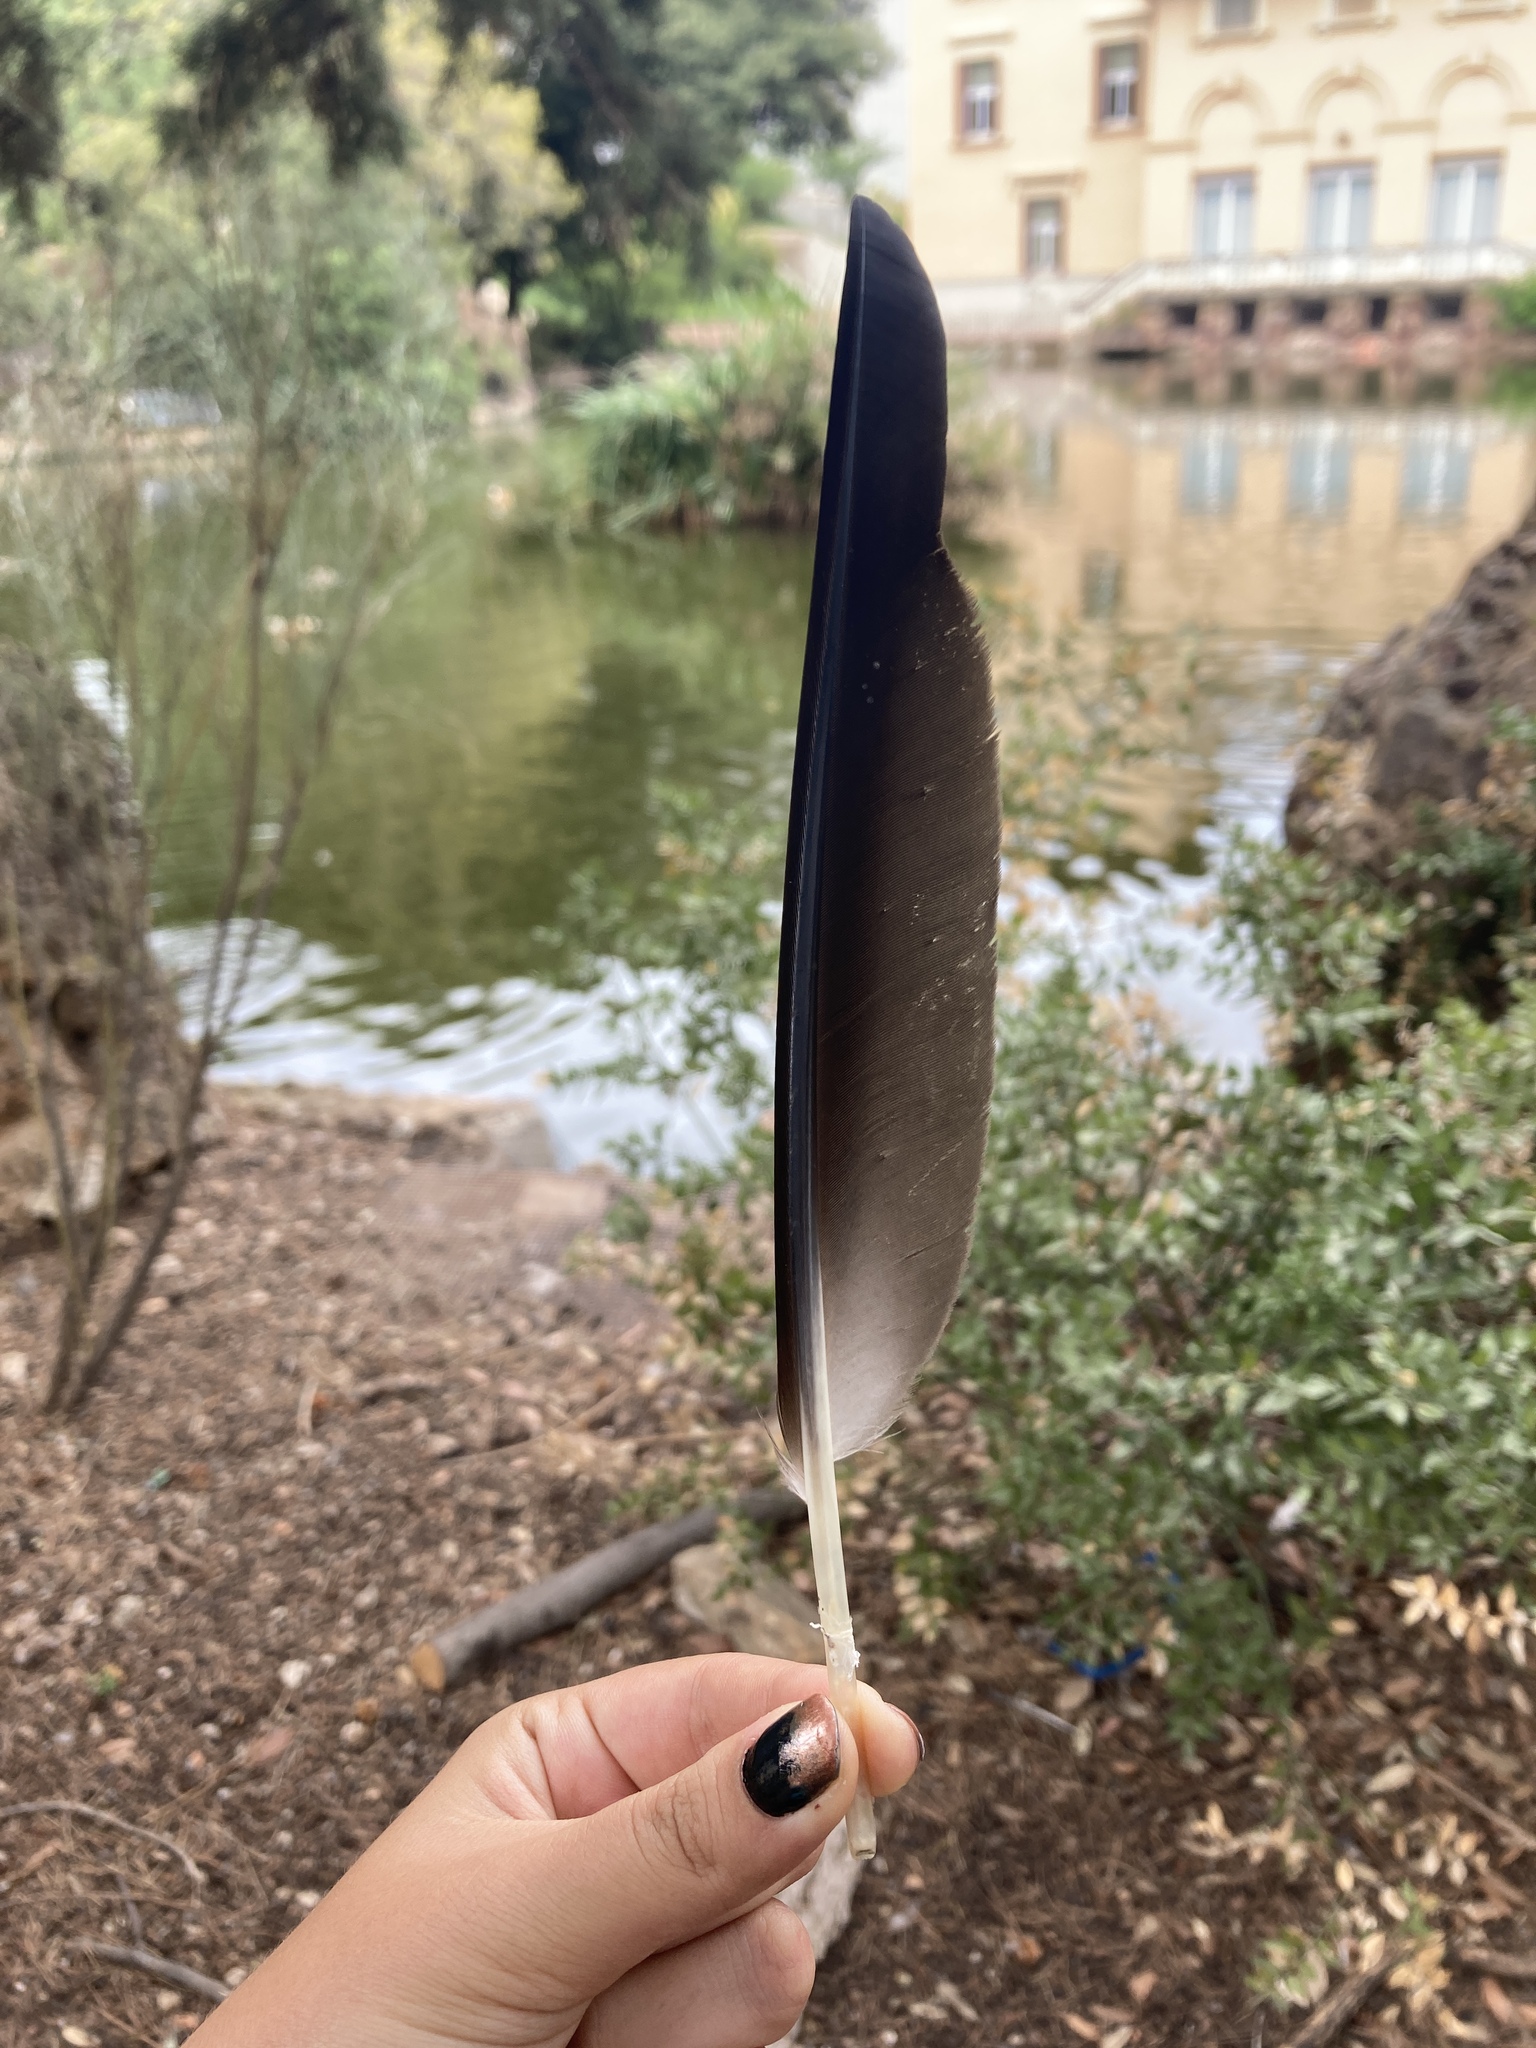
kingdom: Animalia
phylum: Chordata
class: Aves
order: Anseriformes
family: Anatidae
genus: Tadorna
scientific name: Tadorna ferruginea
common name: Ruddy shelduck
